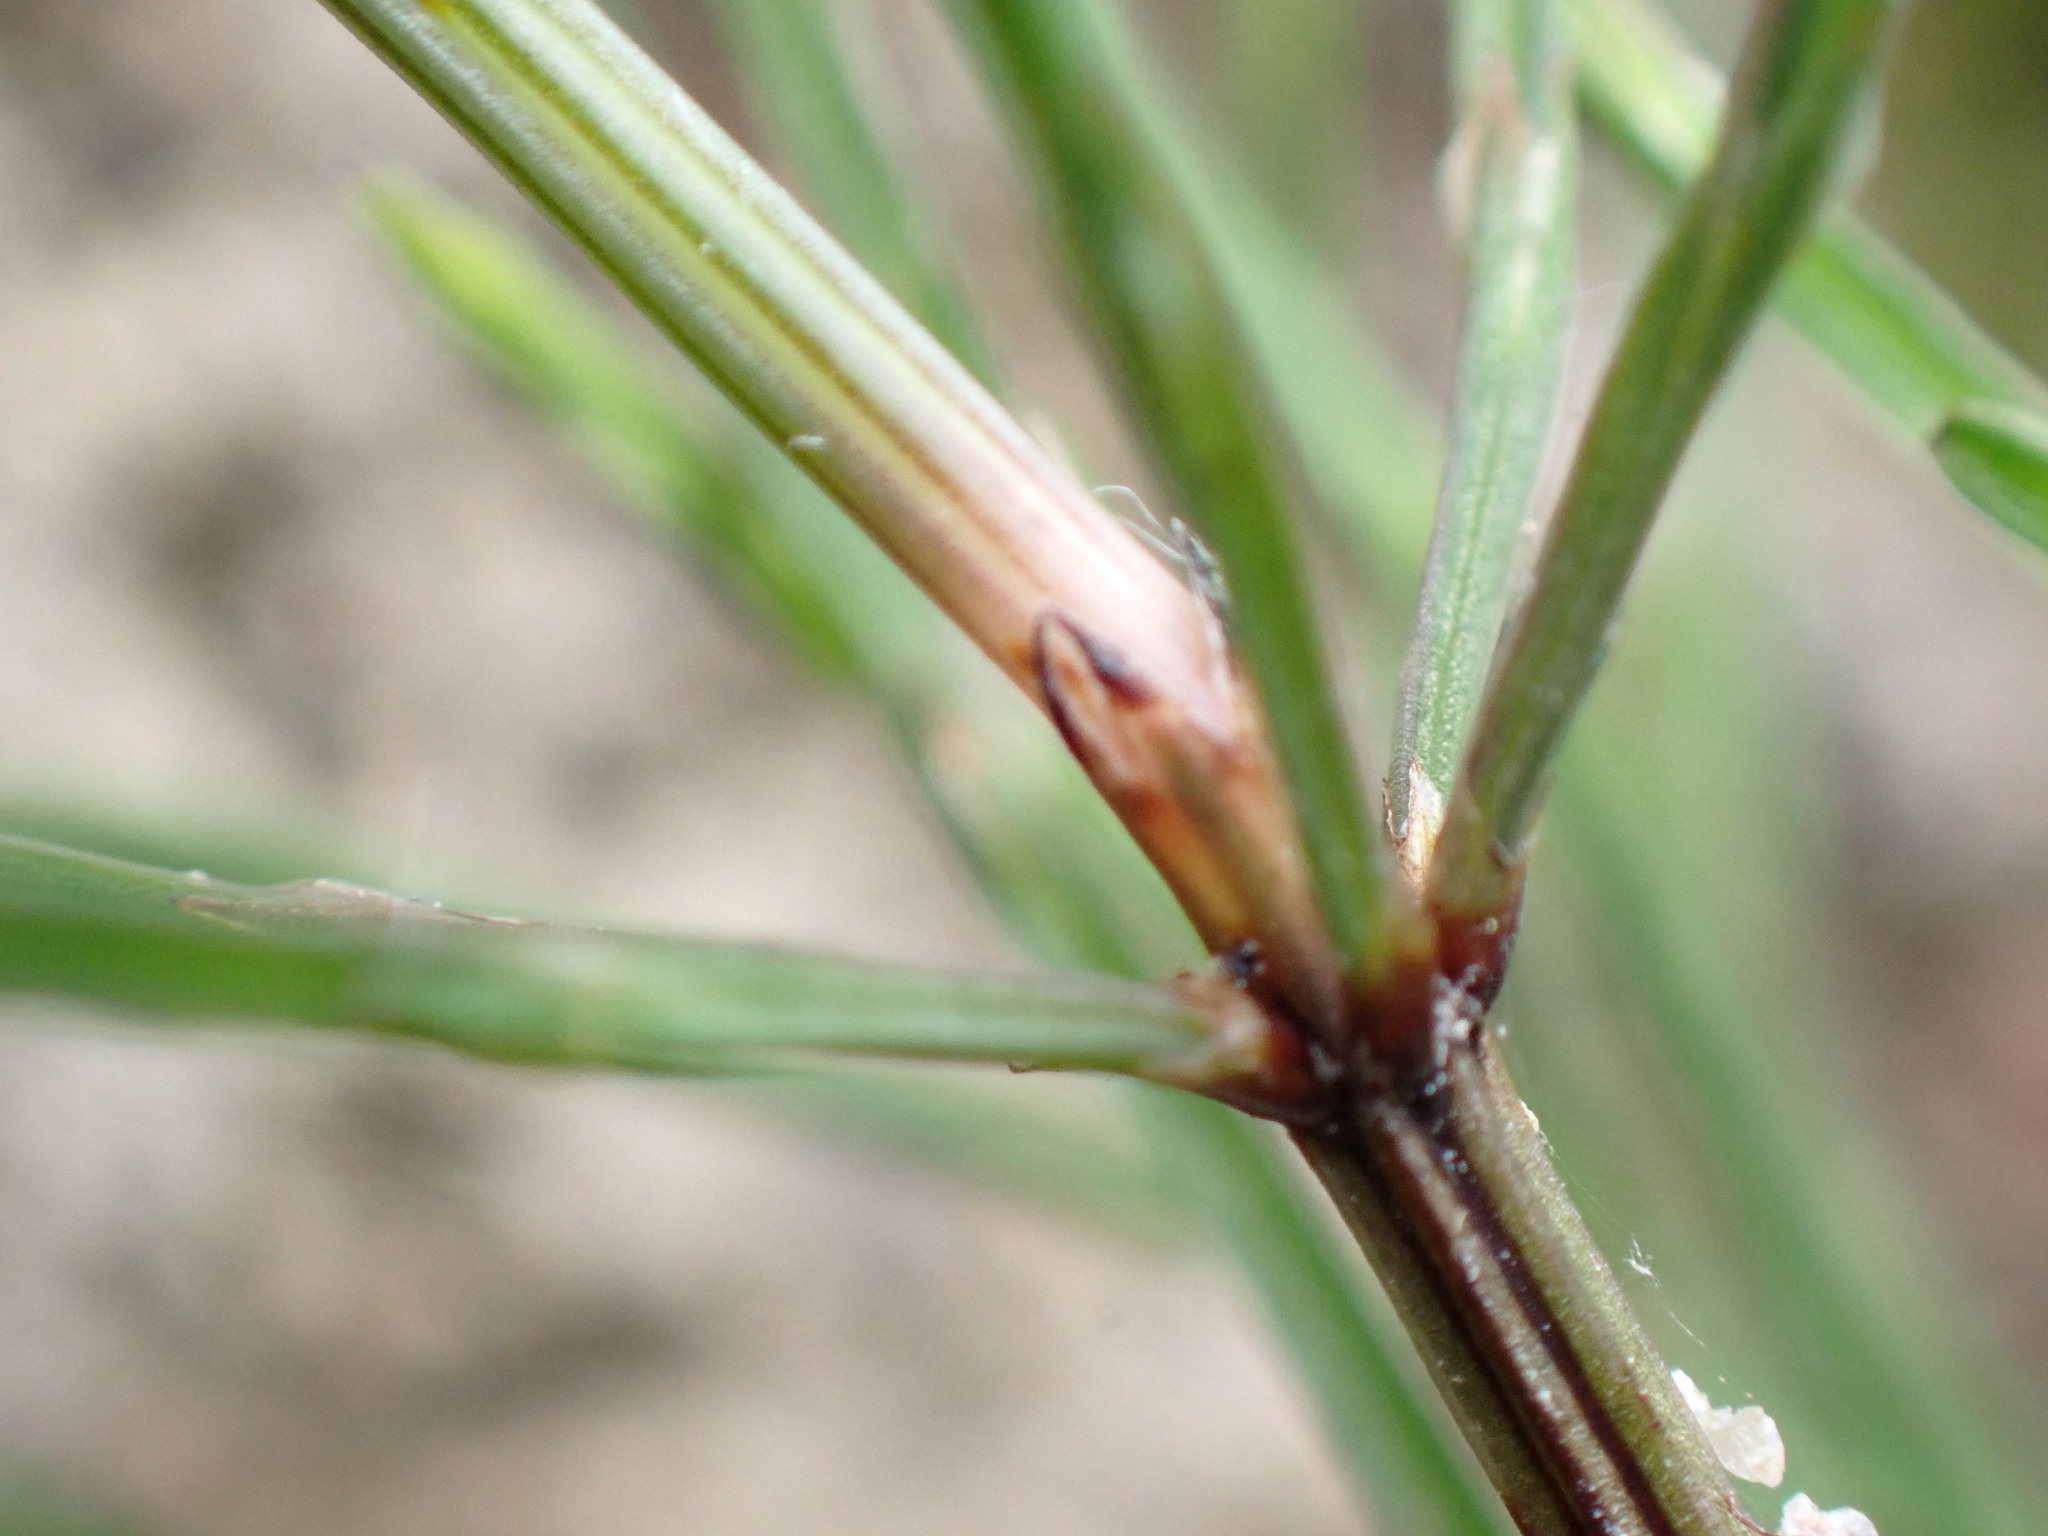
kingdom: Plantae
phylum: Tracheophyta
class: Polypodiopsida
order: Equisetales
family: Equisetaceae
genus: Equisetum
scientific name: Equisetum arvense
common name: Field horsetail
